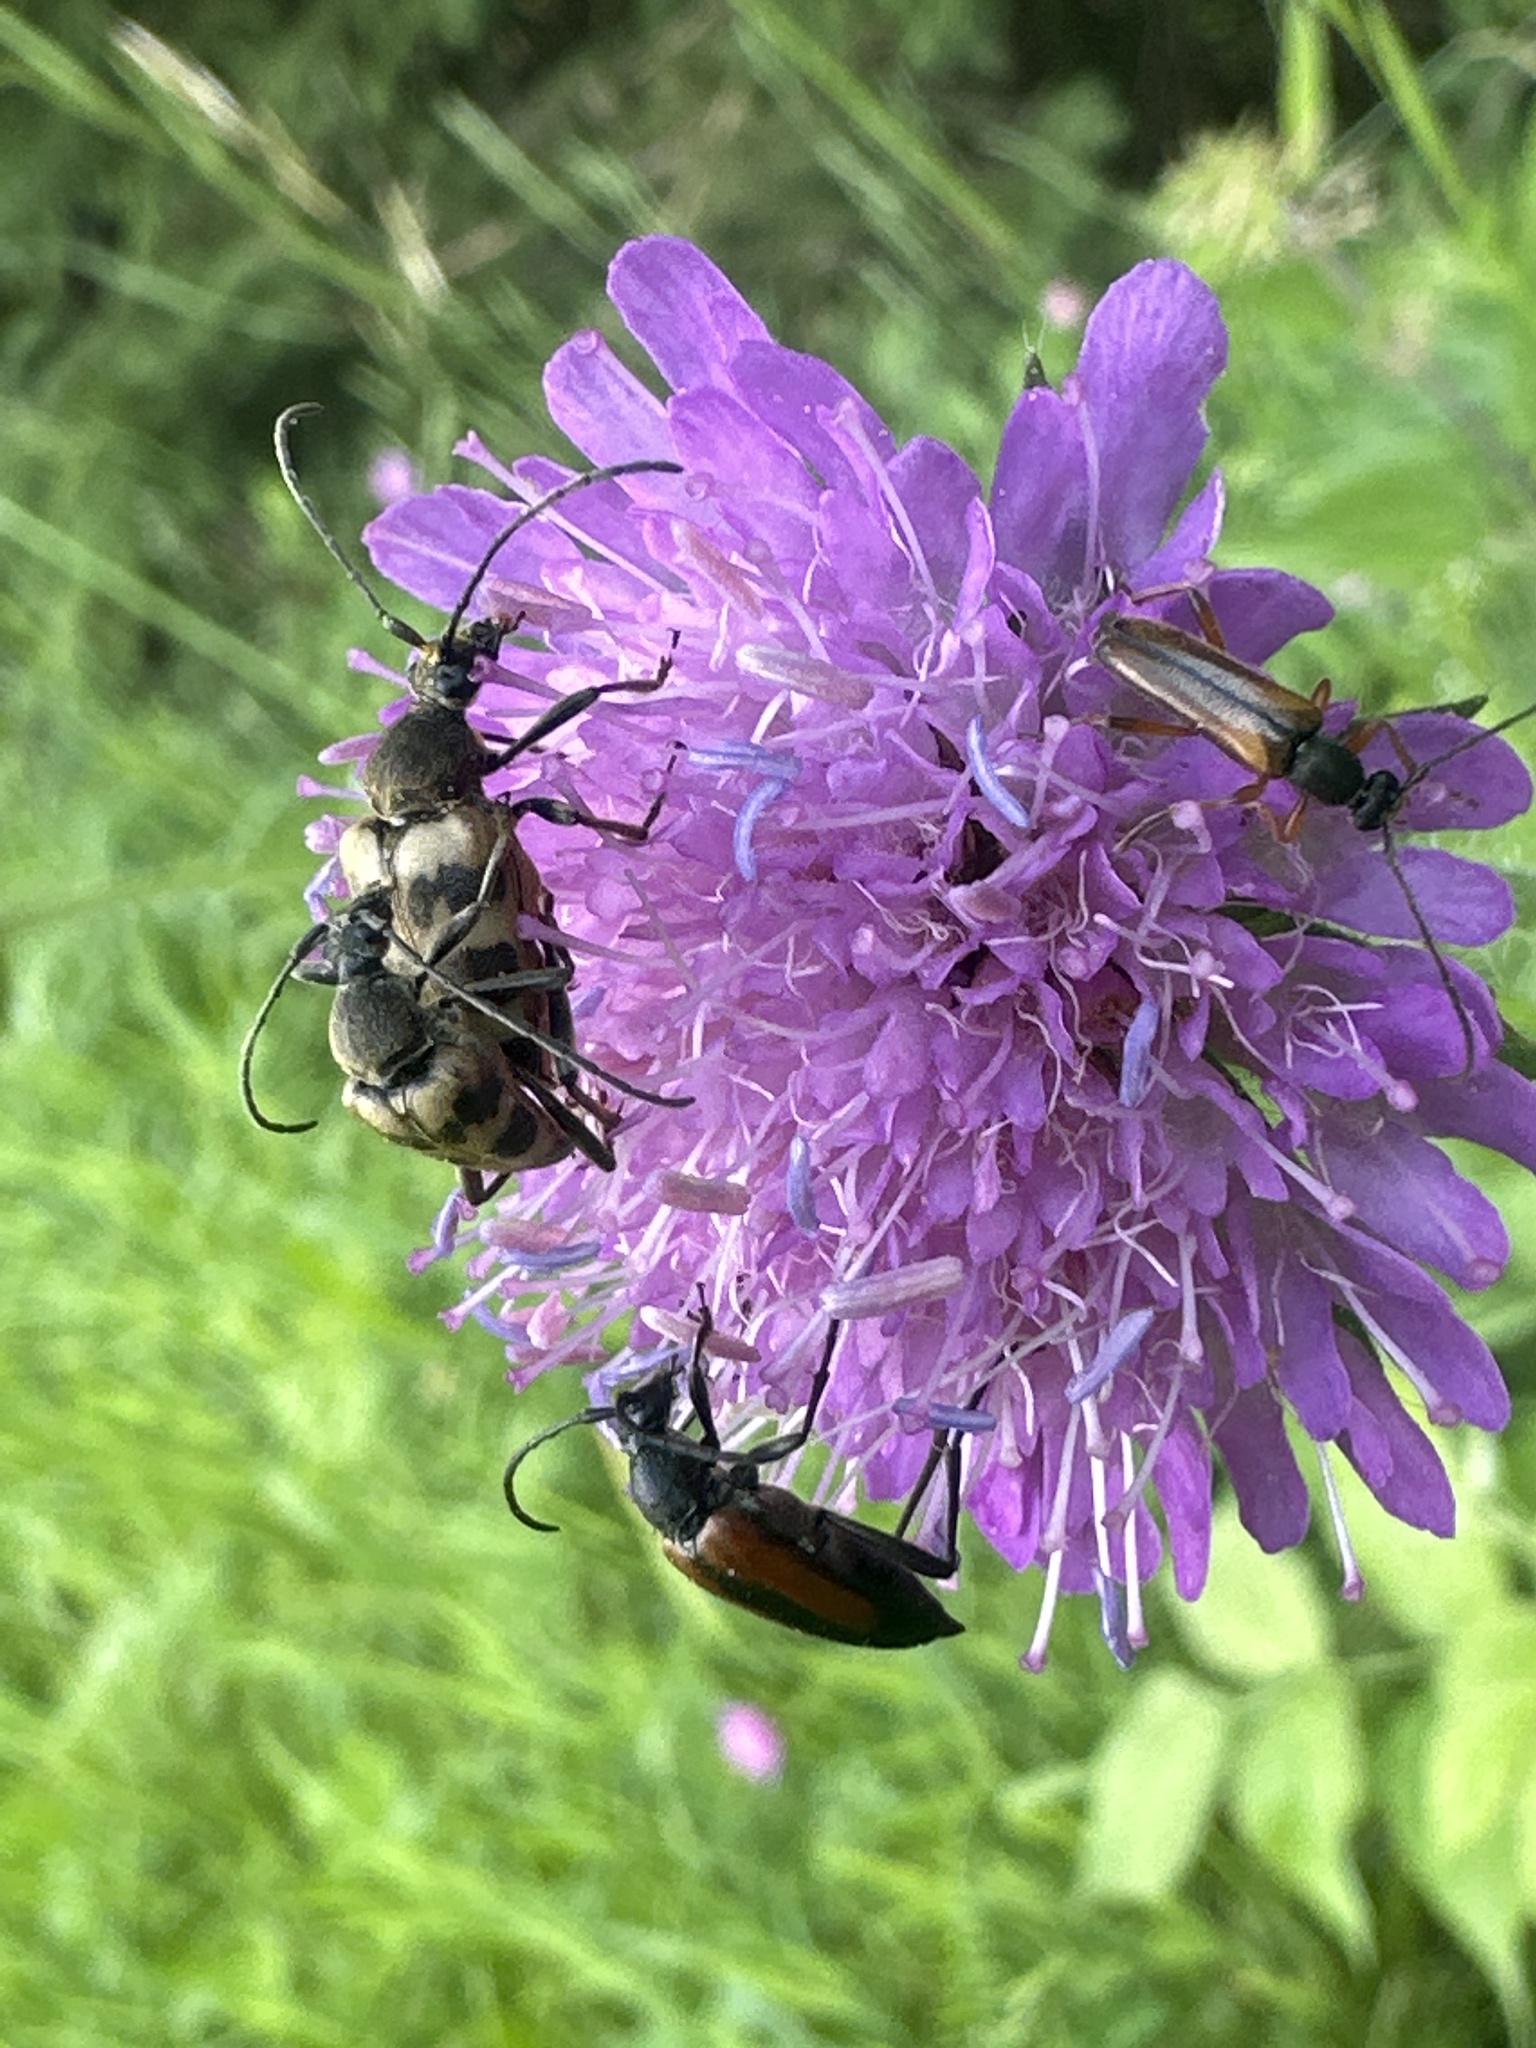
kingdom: Animalia
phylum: Arthropoda
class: Insecta
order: Coleoptera
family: Cerambycidae
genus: Pachytodes
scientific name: Pachytodes cerambyciformis
